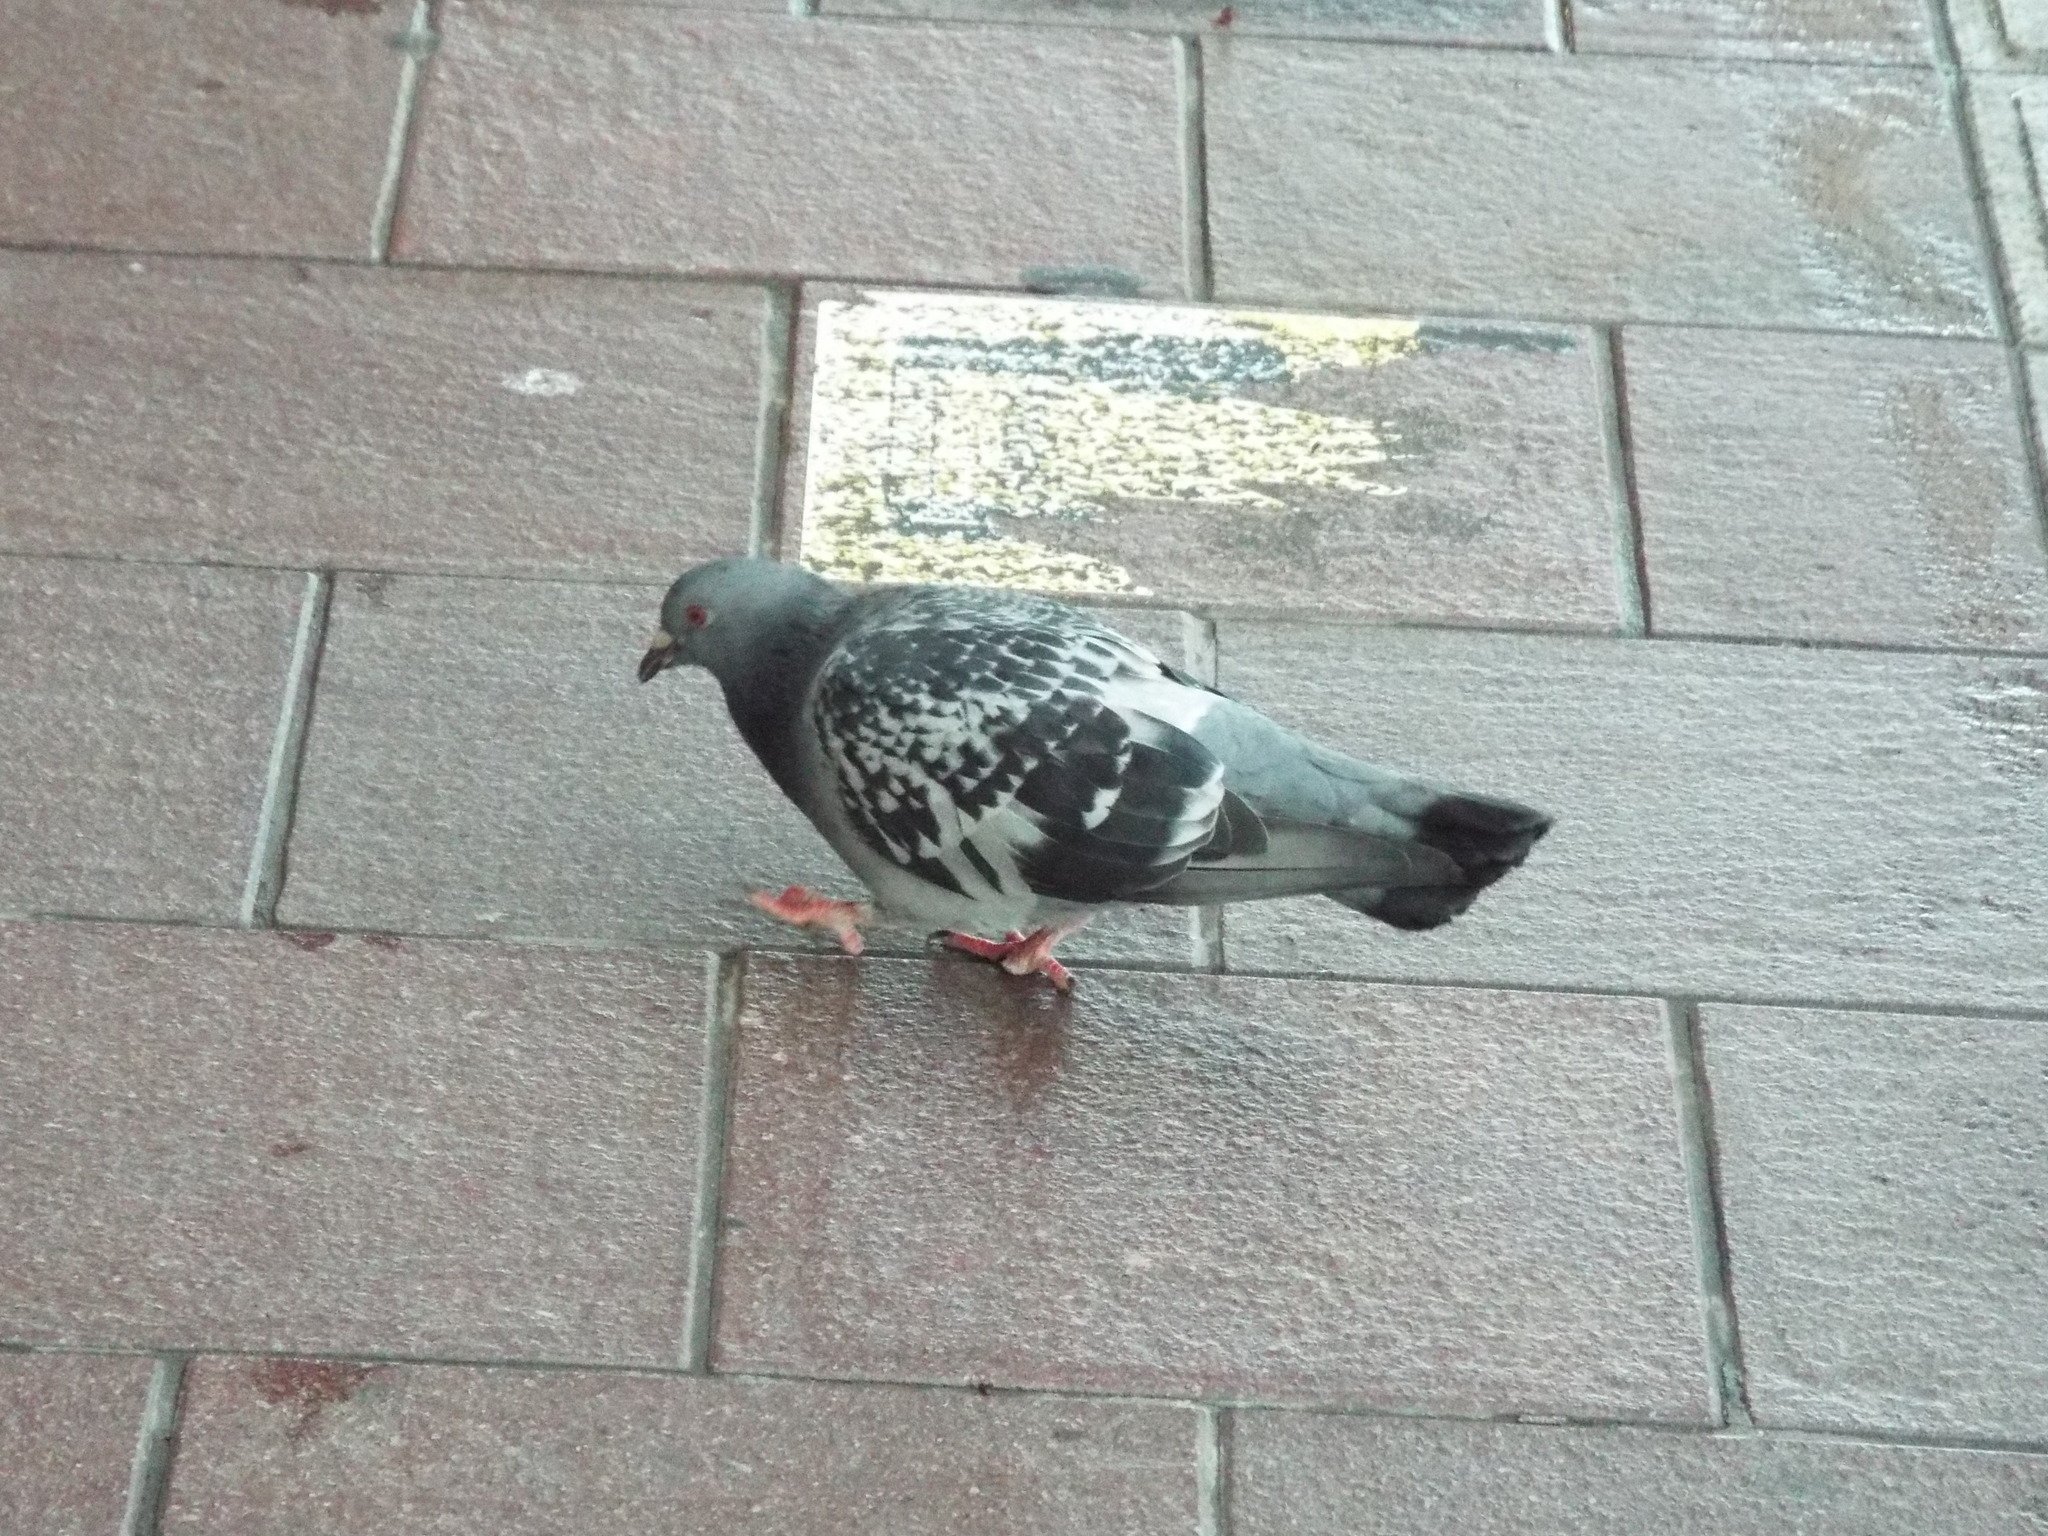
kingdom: Animalia
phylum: Chordata
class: Aves
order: Columbiformes
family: Columbidae
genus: Columba
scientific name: Columba livia
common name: Rock pigeon
